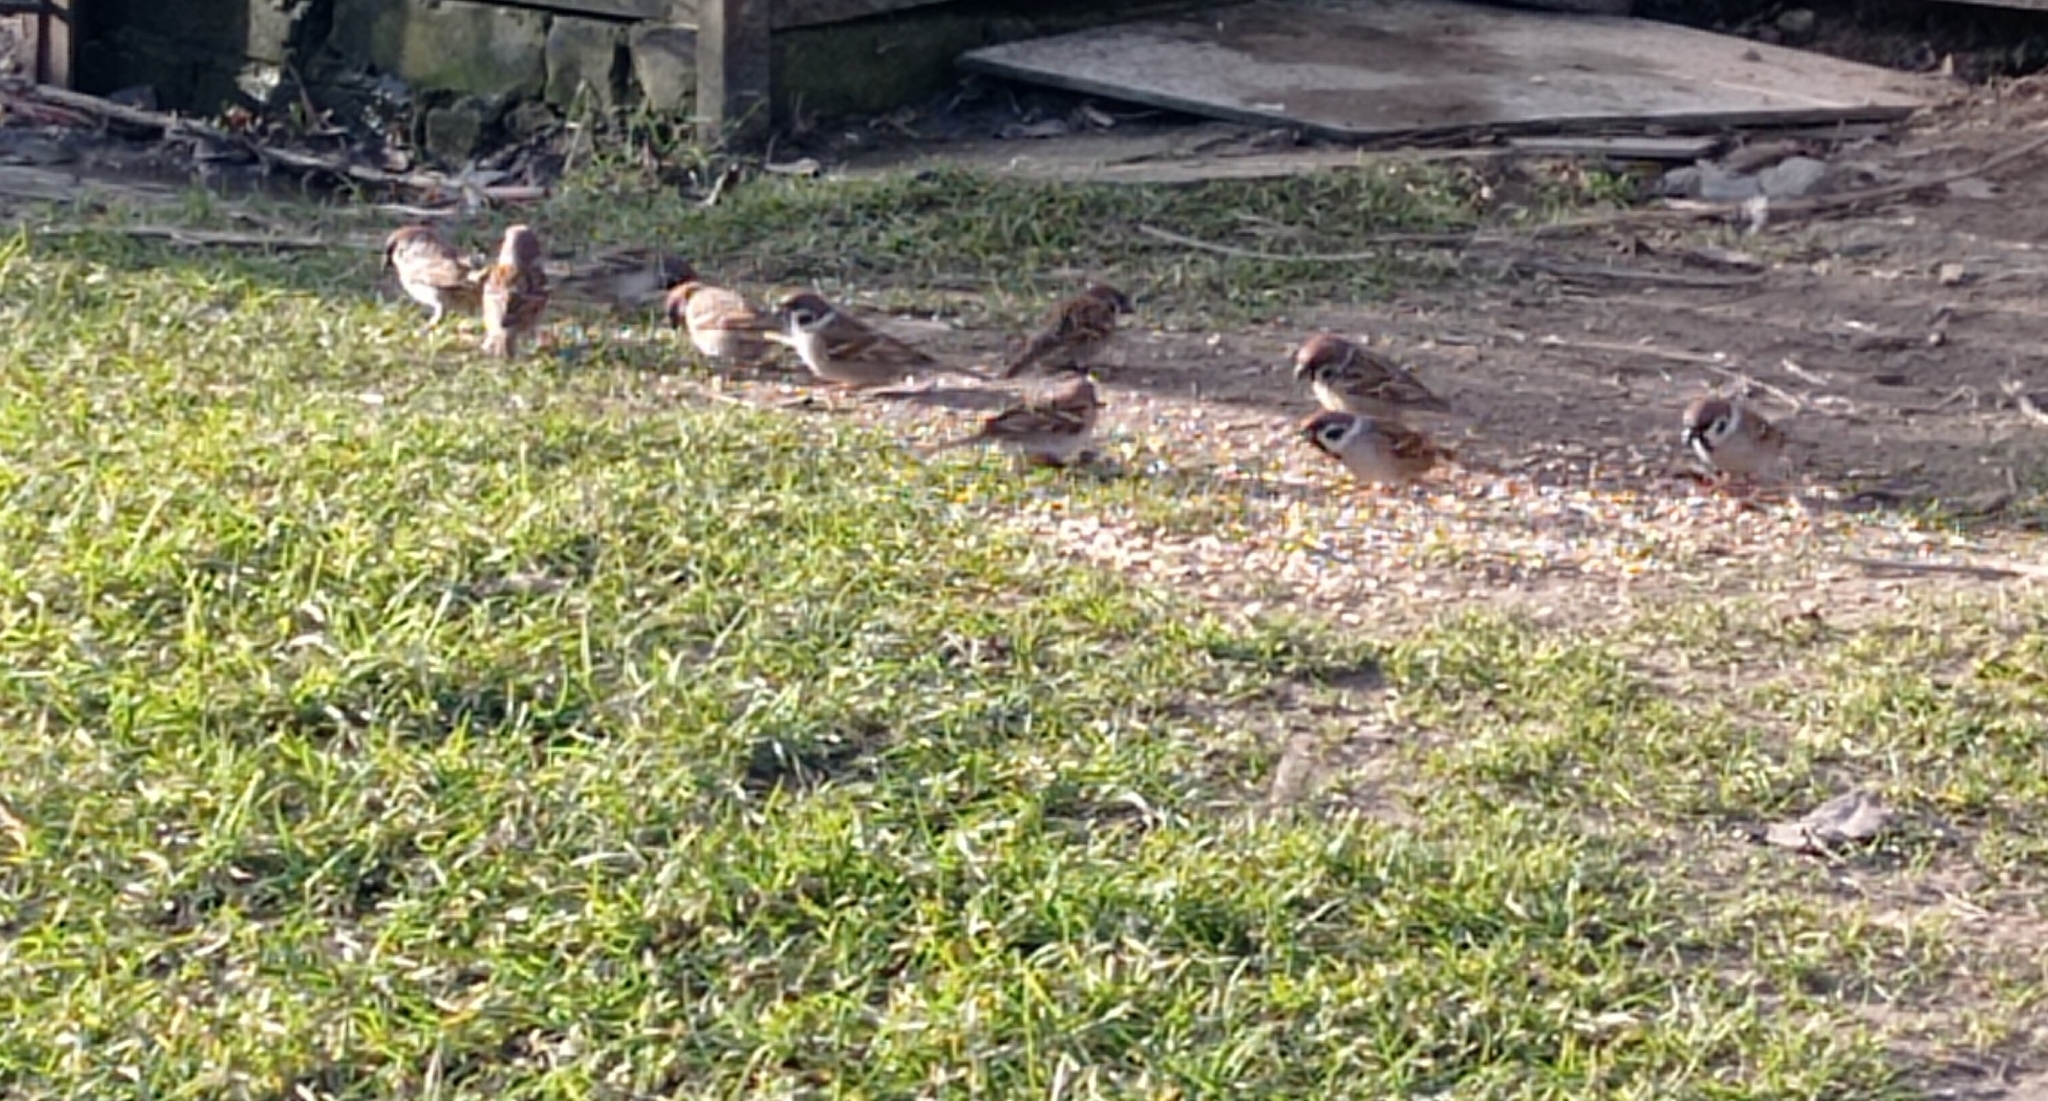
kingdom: Animalia
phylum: Chordata
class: Aves
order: Passeriformes
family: Passeridae
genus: Passer
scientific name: Passer montanus
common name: Eurasian tree sparrow
